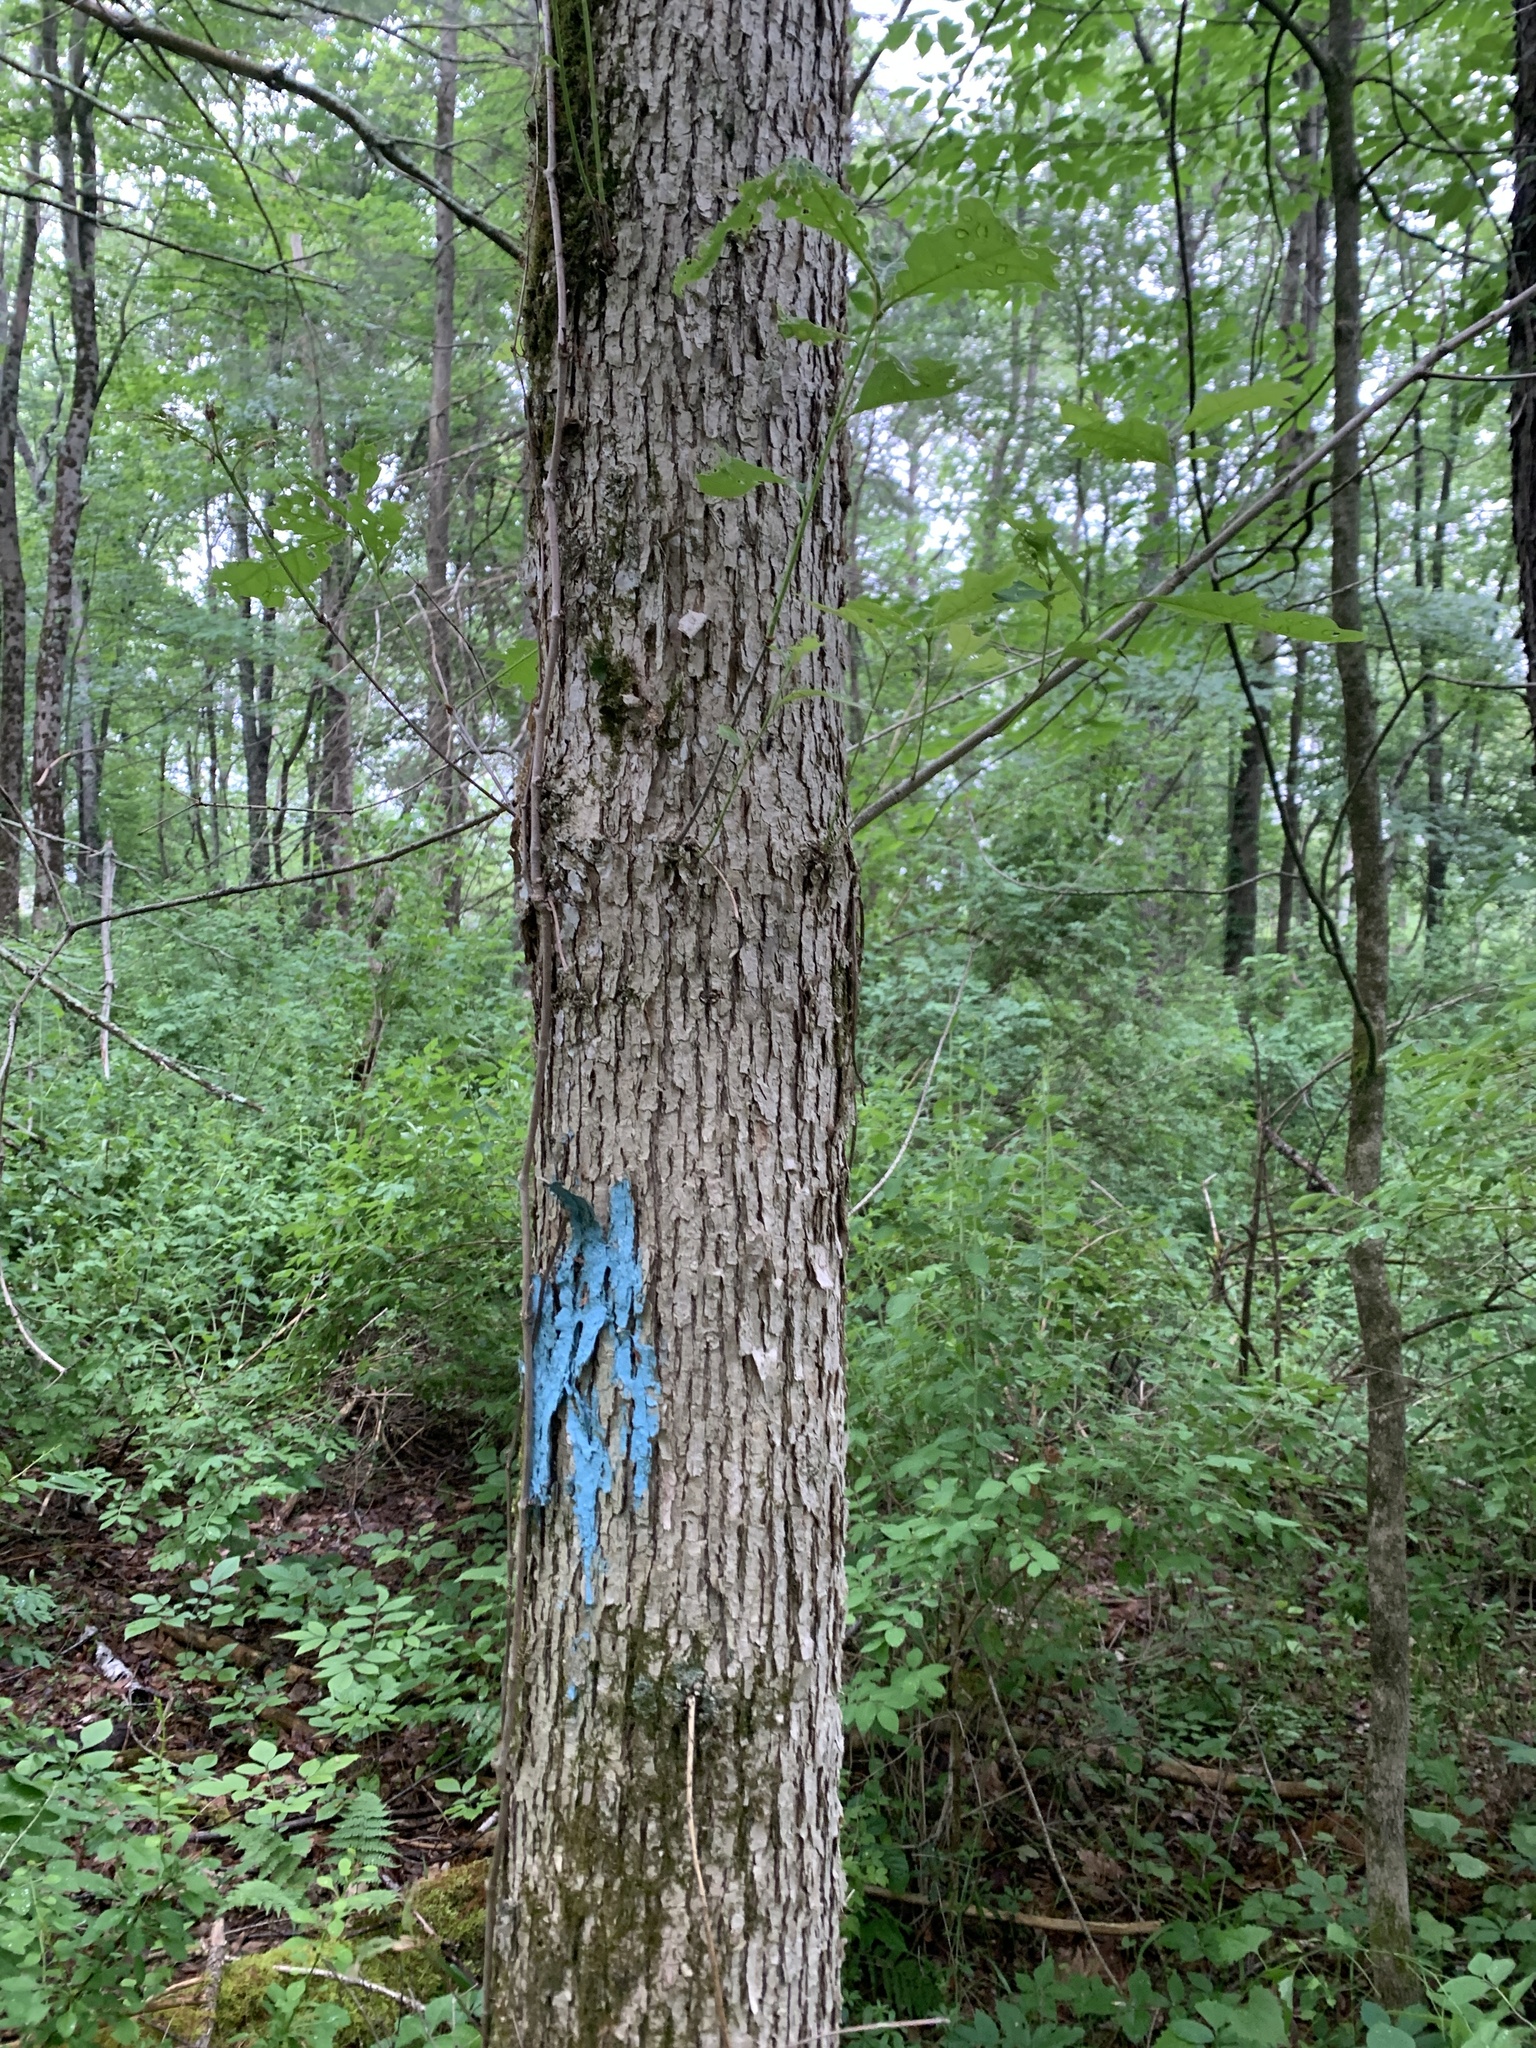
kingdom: Plantae
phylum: Tracheophyta
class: Magnoliopsida
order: Fagales
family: Fagaceae
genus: Quercus
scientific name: Quercus alba
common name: White oak
